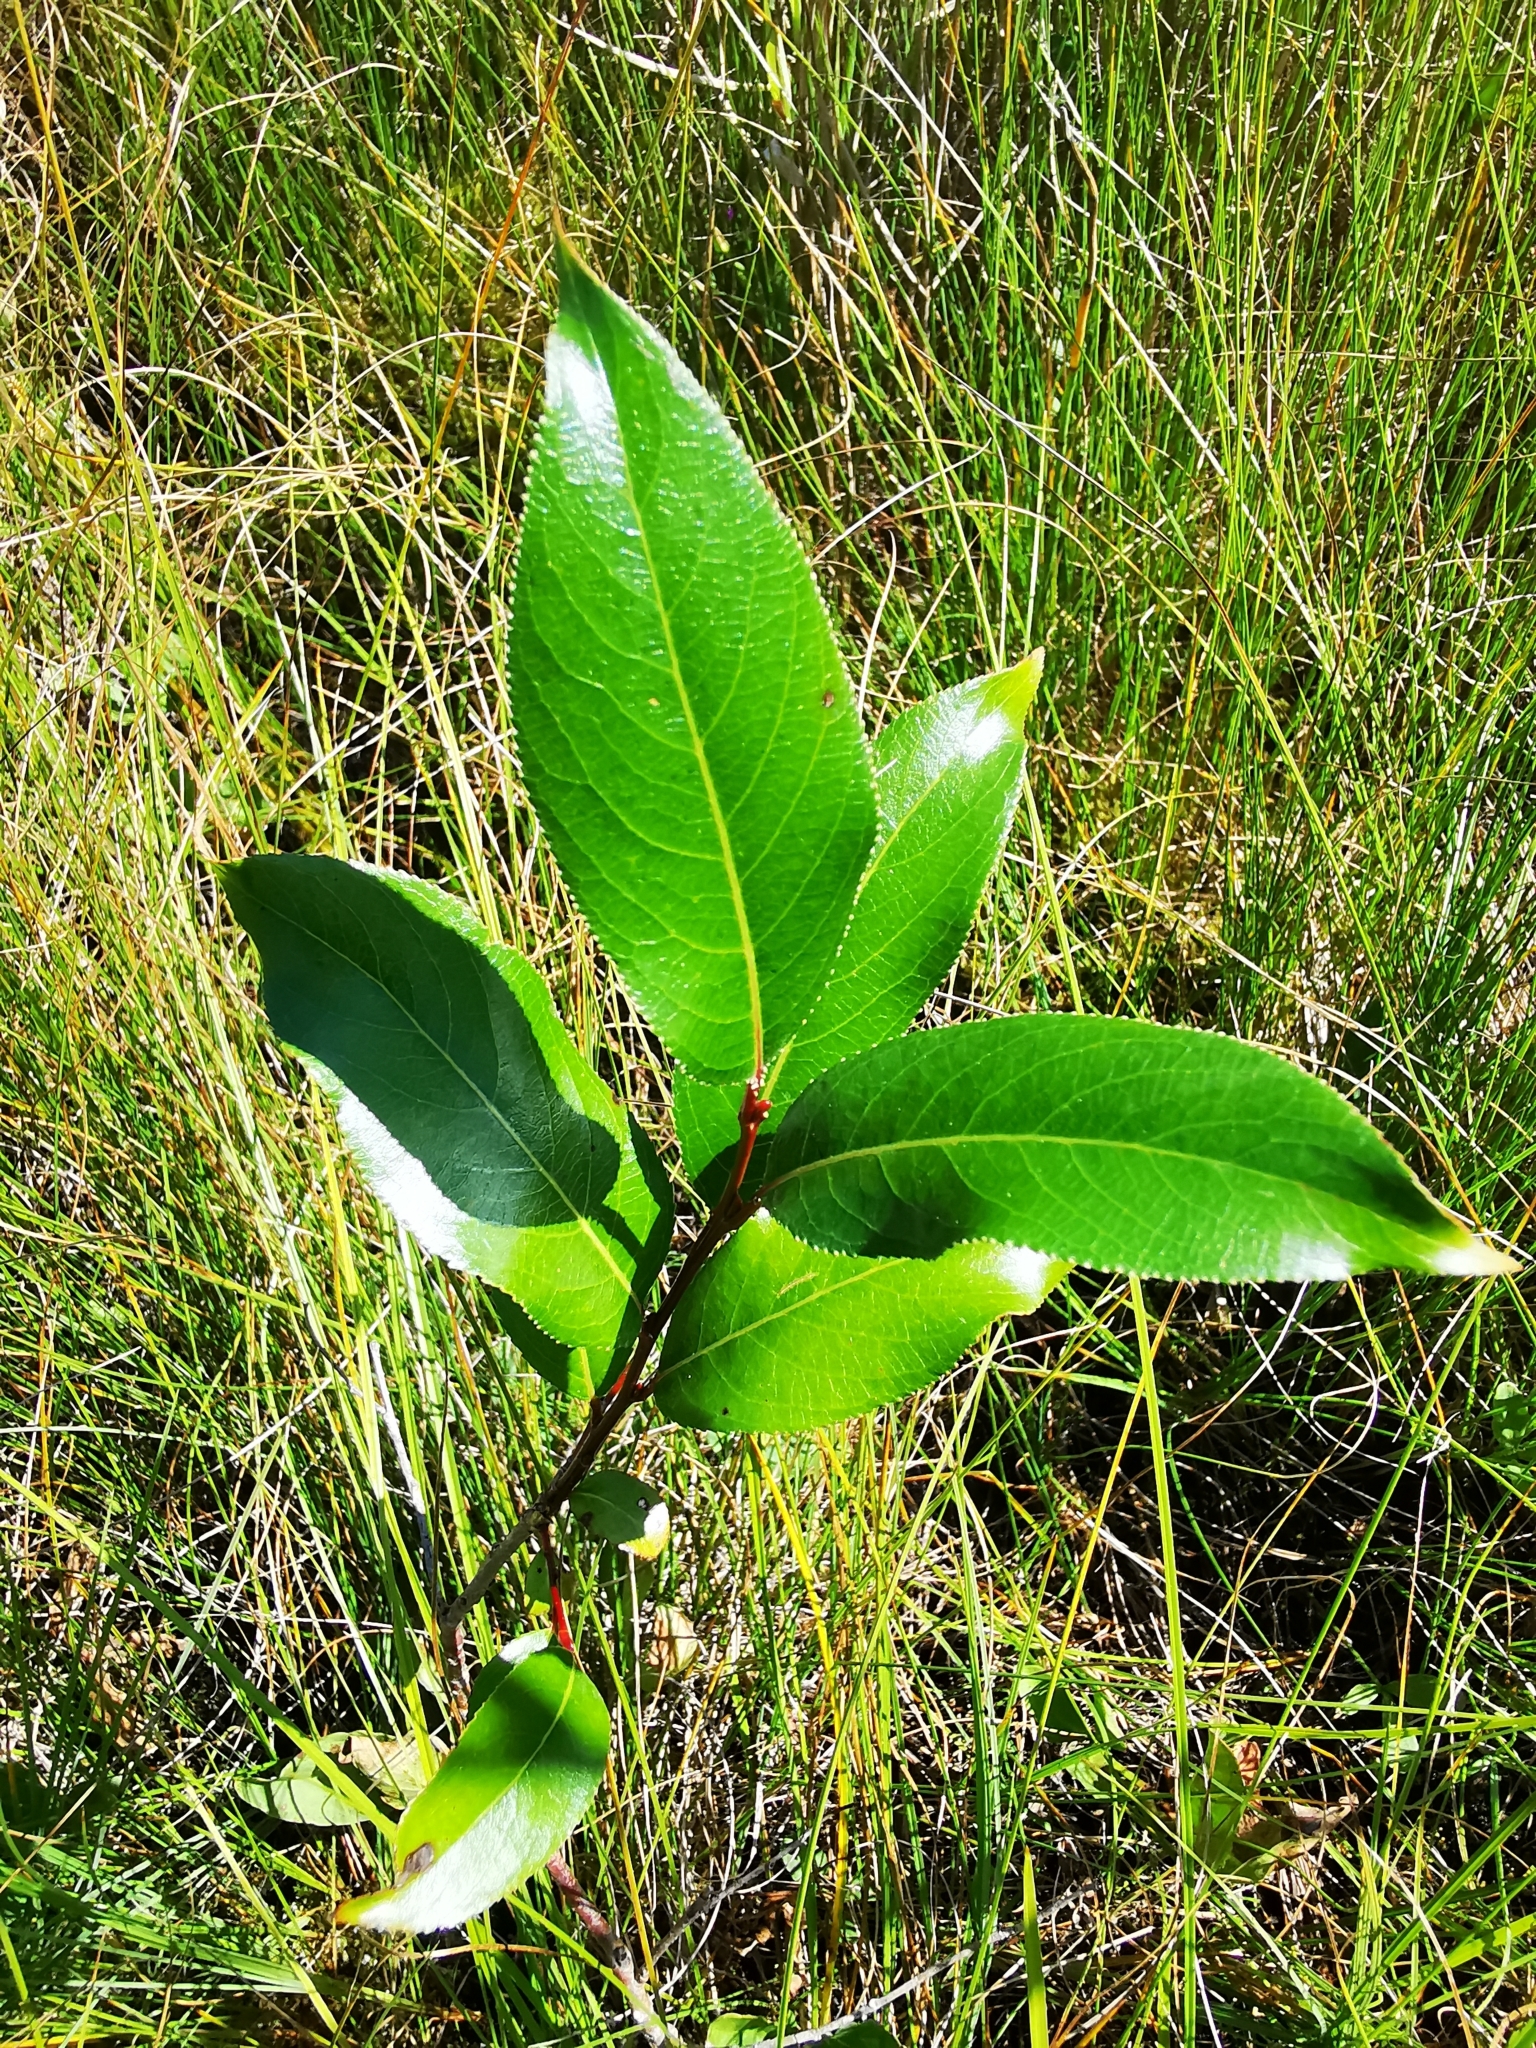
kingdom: Plantae
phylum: Tracheophyta
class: Magnoliopsida
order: Malpighiales
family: Salicaceae
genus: Salix
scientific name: Salix pentandra
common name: Bay willow
